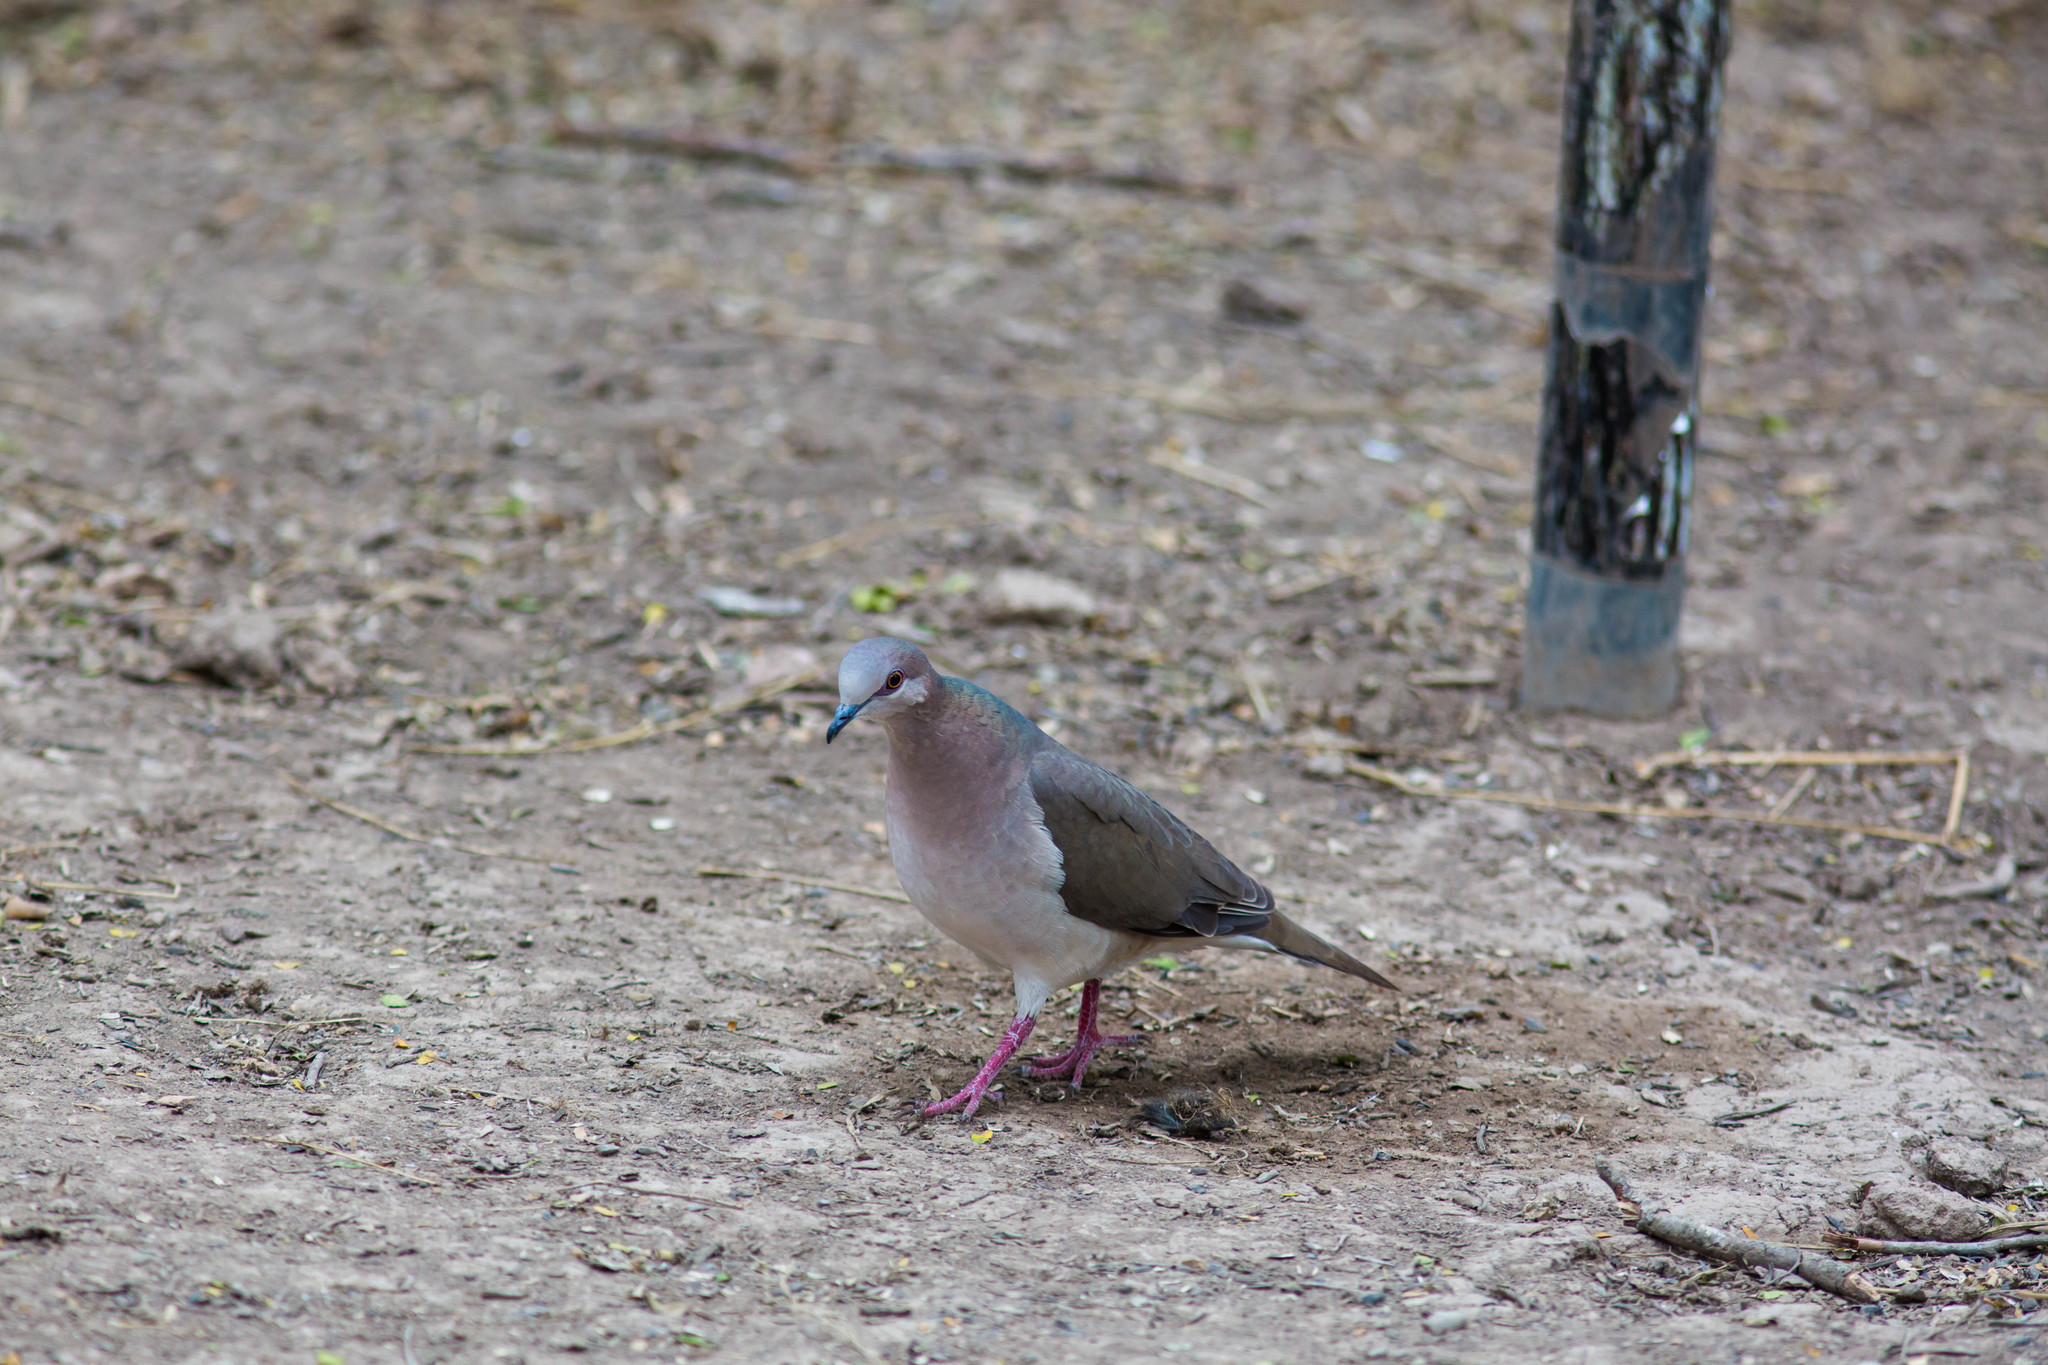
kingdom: Animalia
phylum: Chordata
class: Aves
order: Columbiformes
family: Columbidae
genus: Leptotila
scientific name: Leptotila verreauxi
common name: White-tipped dove
